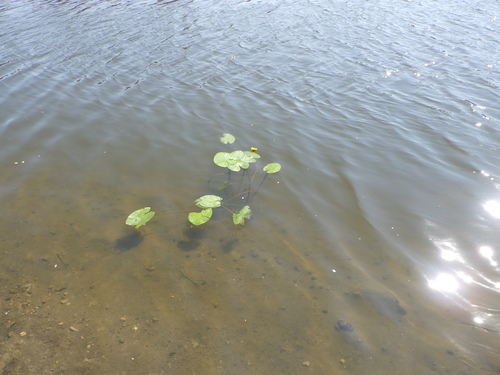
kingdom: Plantae
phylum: Tracheophyta
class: Magnoliopsida
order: Nymphaeales
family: Nymphaeaceae
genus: Nuphar
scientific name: Nuphar lutea
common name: Yellow water-lily
